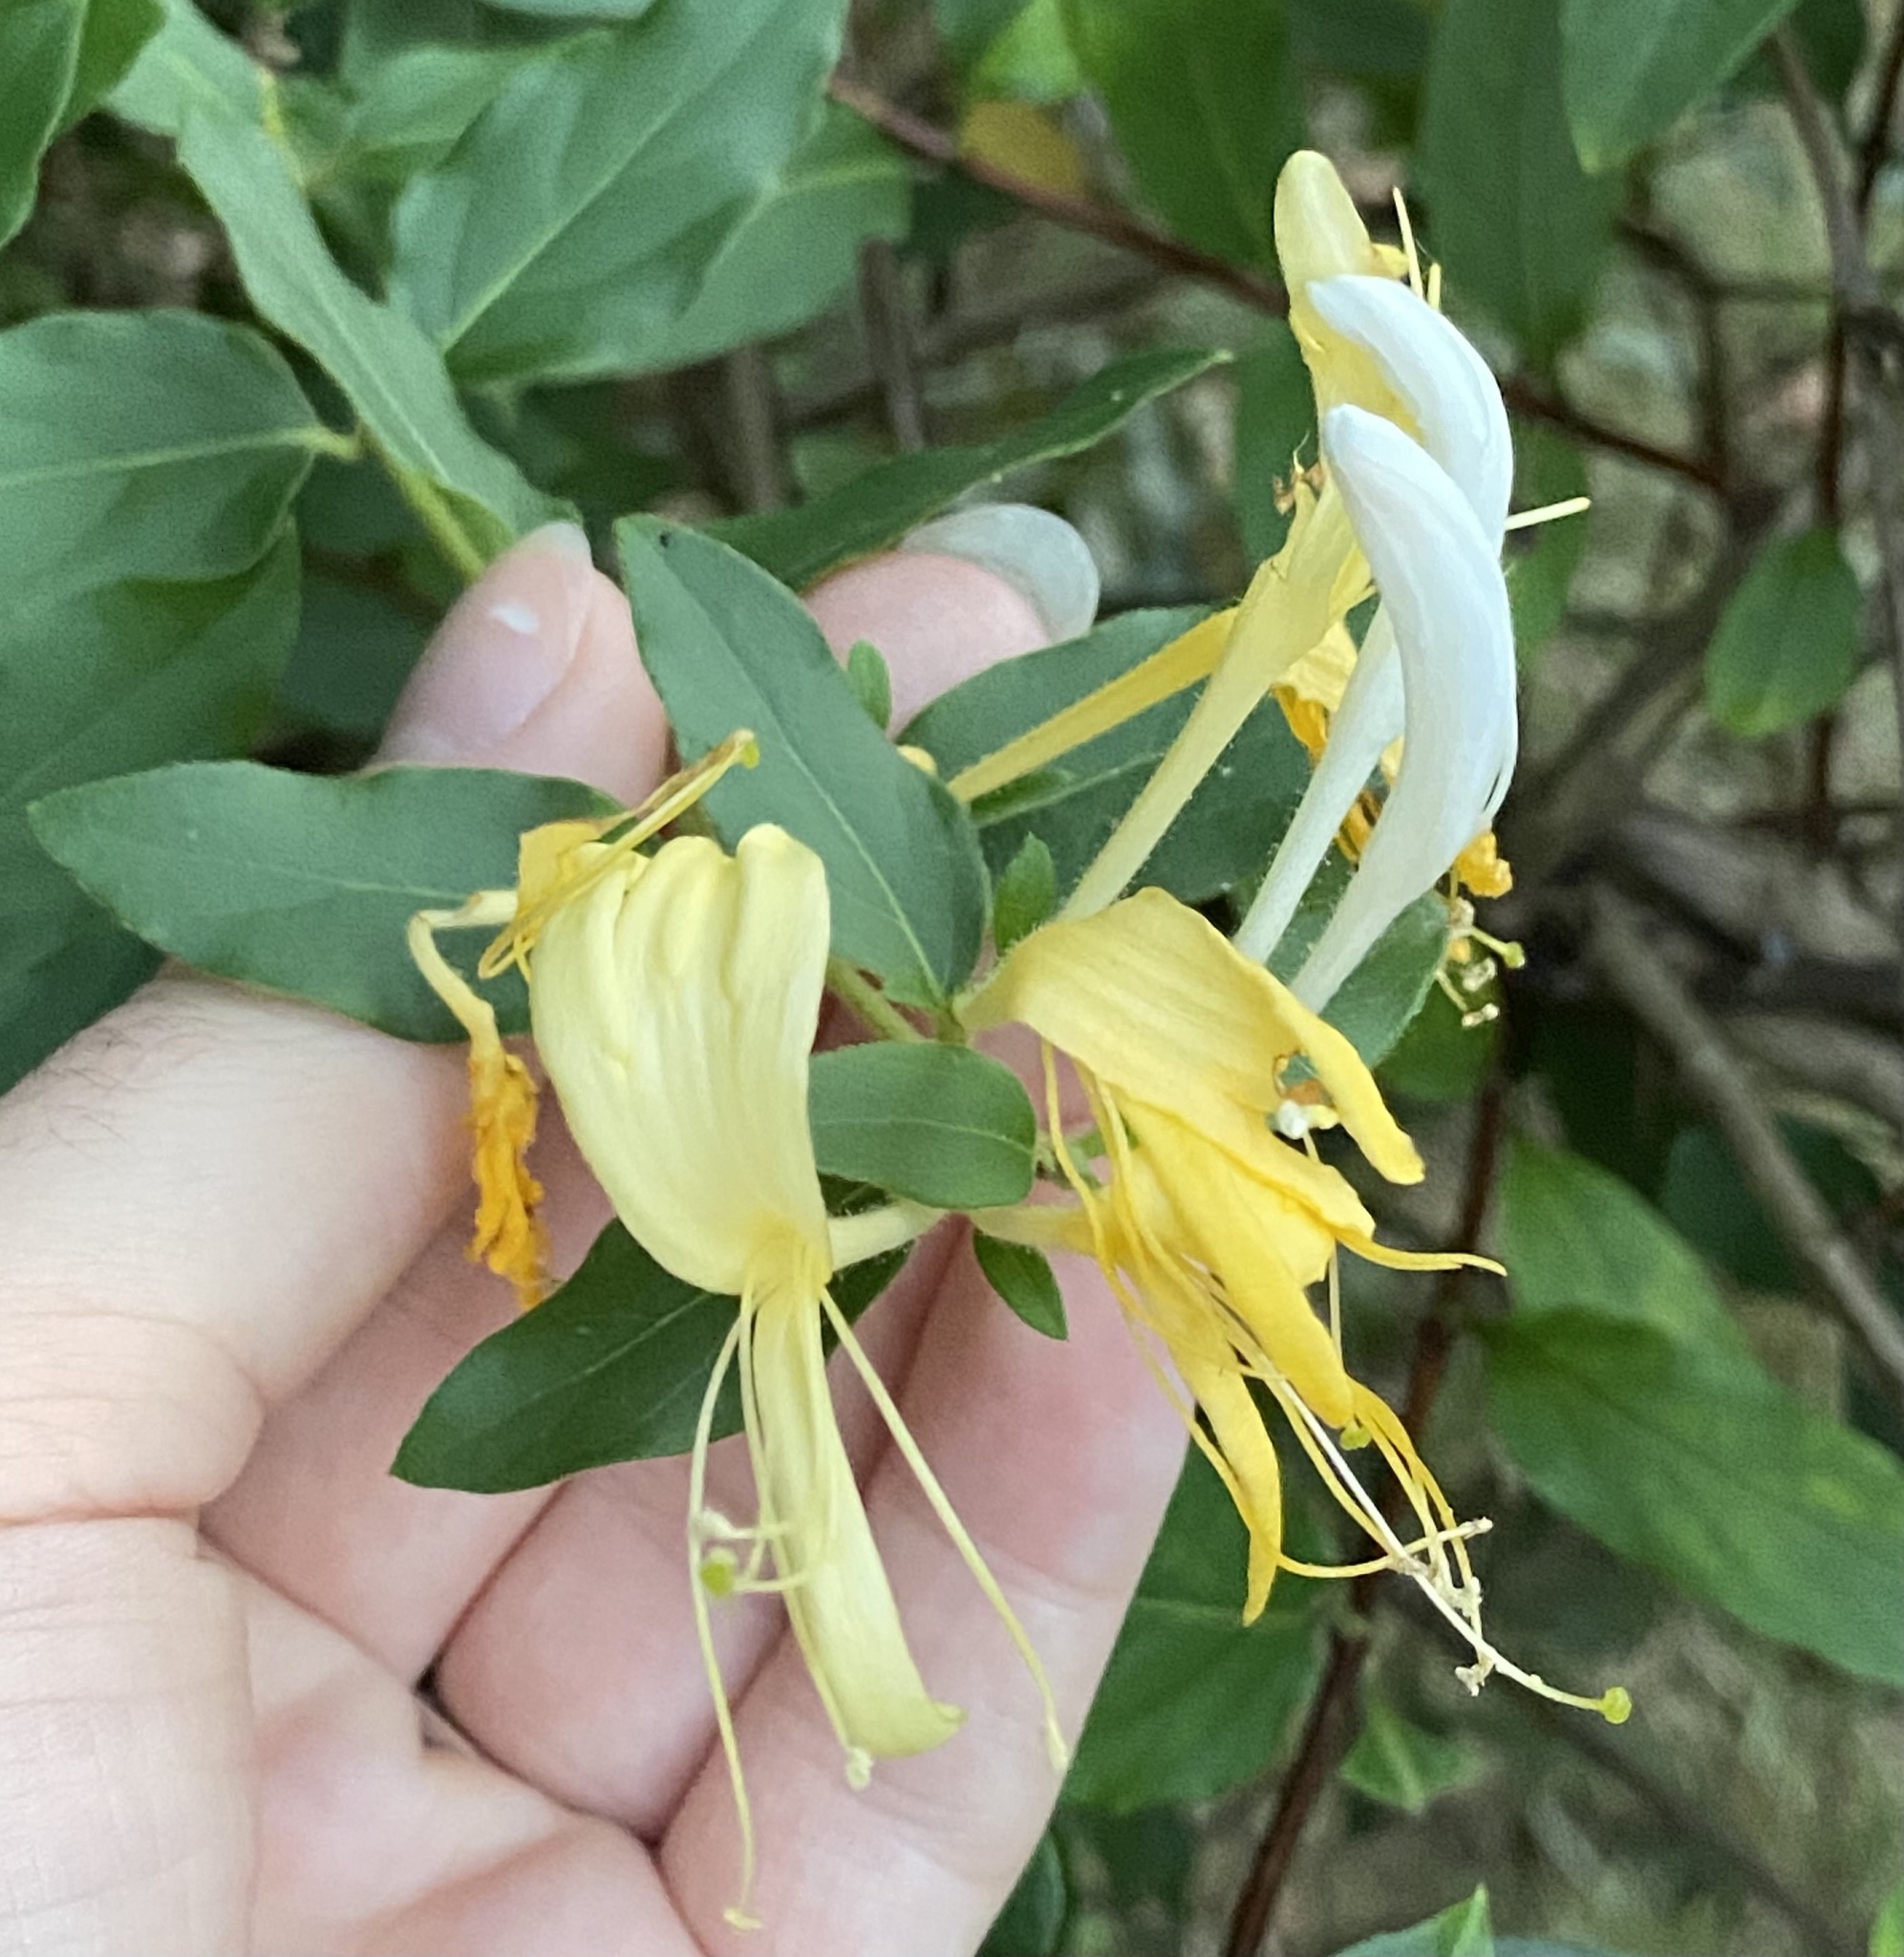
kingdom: Plantae
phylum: Tracheophyta
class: Magnoliopsida
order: Dipsacales
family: Caprifoliaceae
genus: Lonicera
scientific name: Lonicera japonica
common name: Japanese honeysuckle
